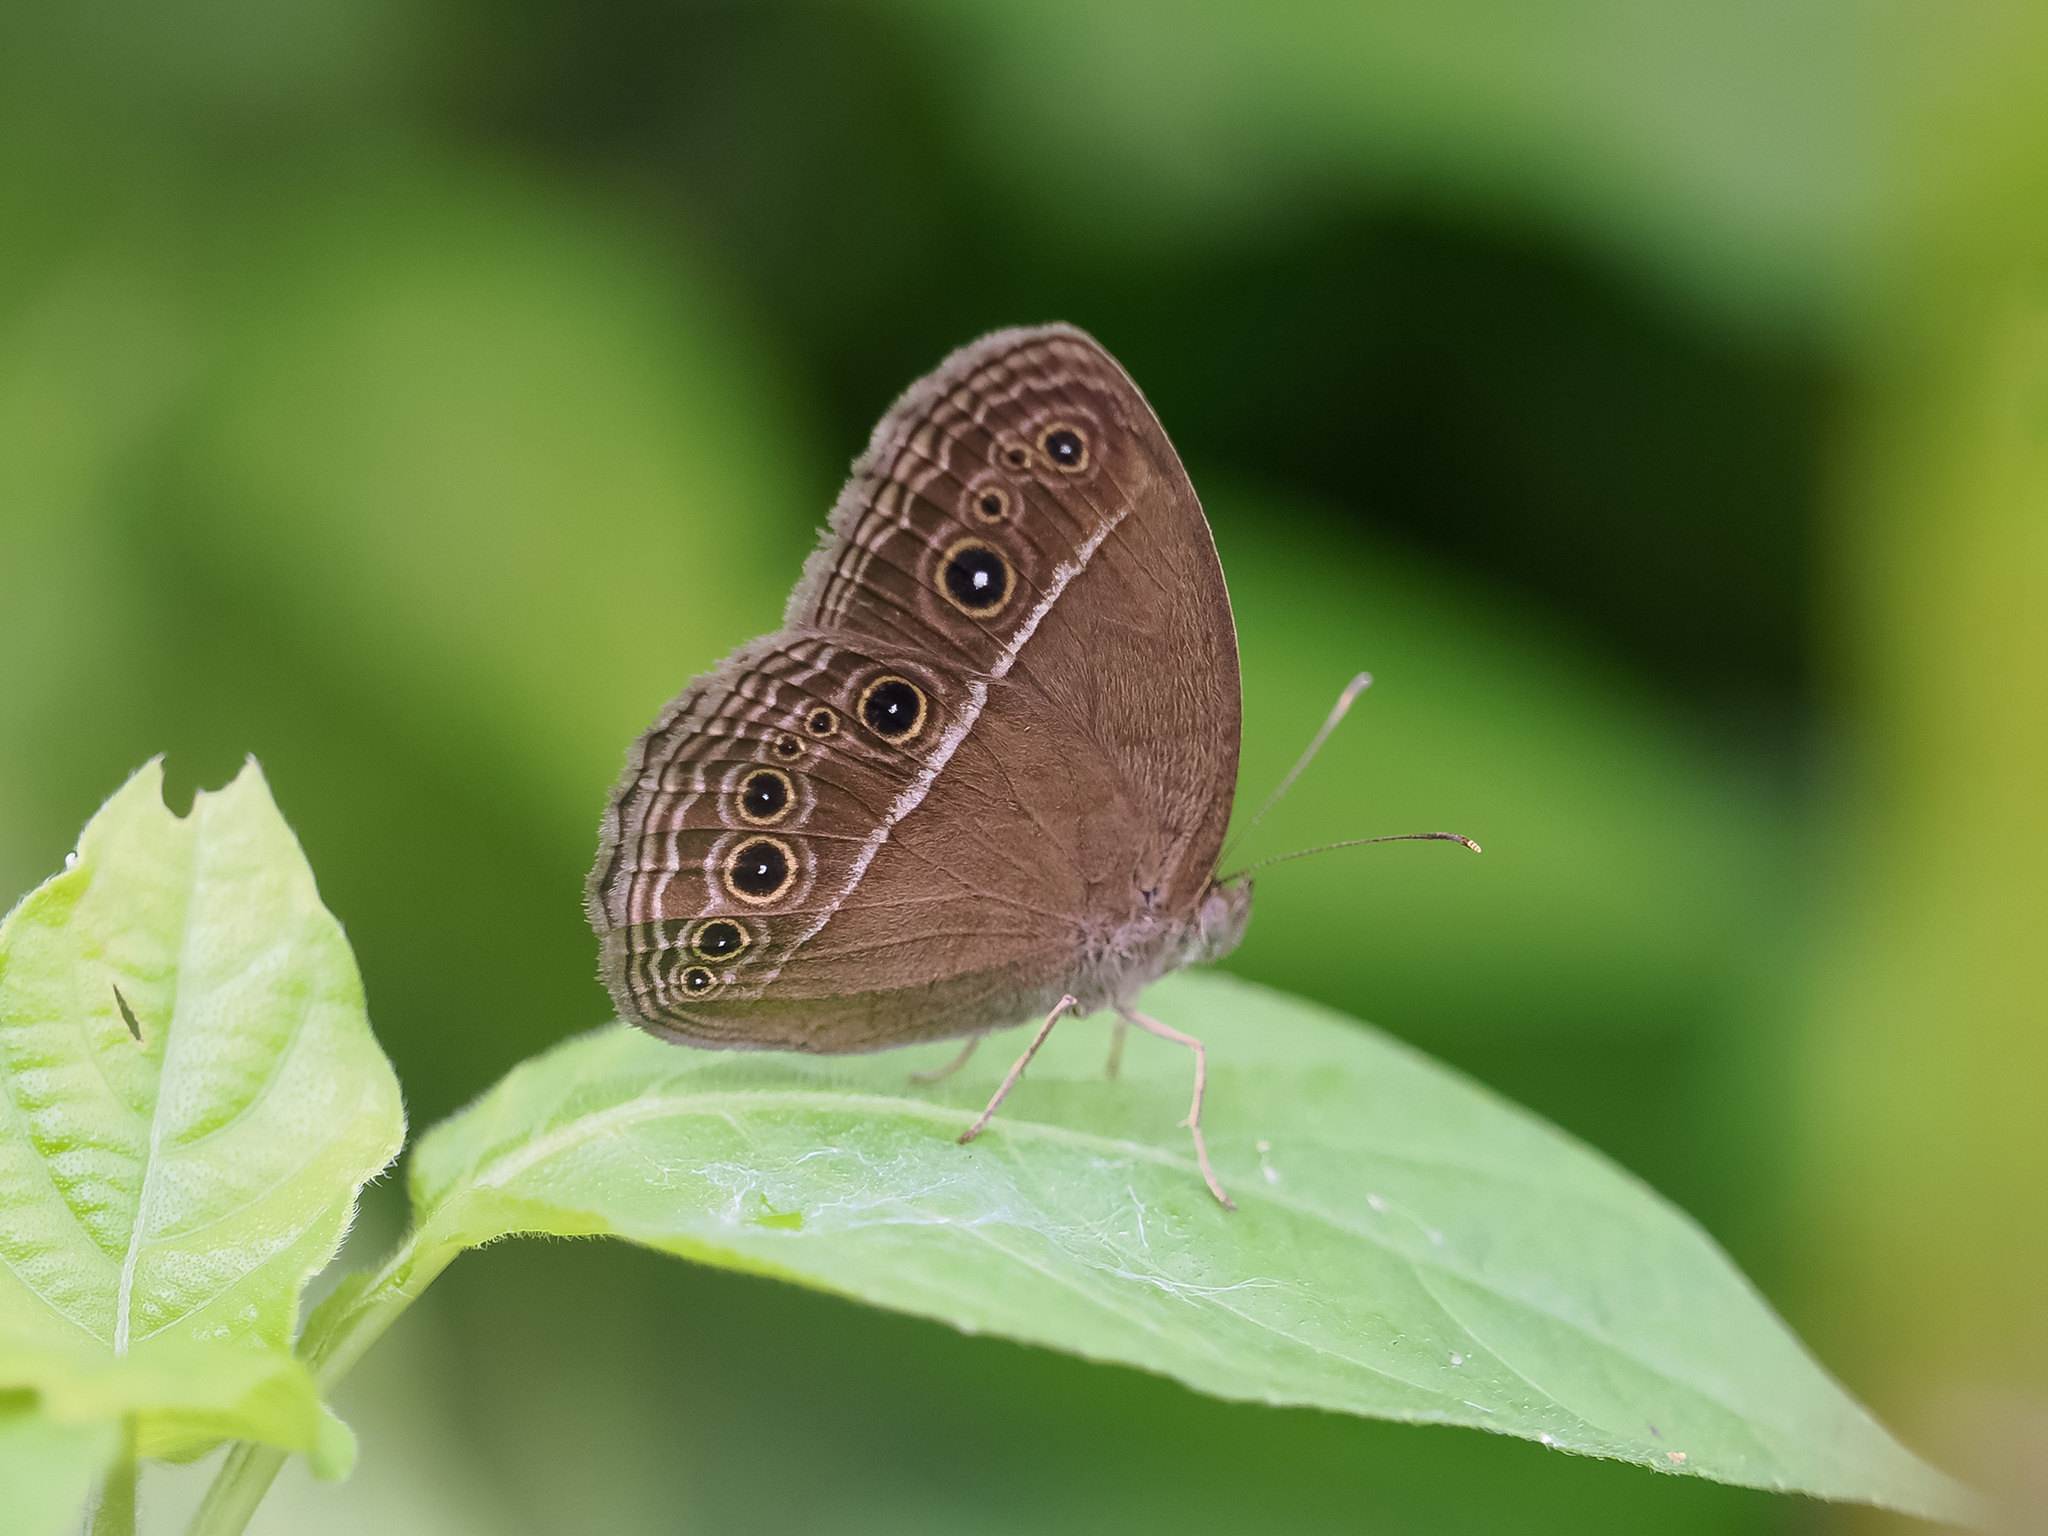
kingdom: Animalia
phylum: Arthropoda
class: Insecta
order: Lepidoptera
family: Nymphalidae
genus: Mycalesis
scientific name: Mycalesis perseus
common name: Dingy bushbrown
